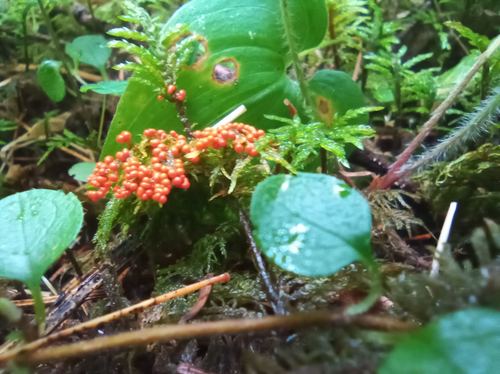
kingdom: Protozoa
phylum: Mycetozoa
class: Myxomycetes
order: Trichiales
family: Arcyriaceae
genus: Hemitrichia
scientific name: Hemitrichia decipiens
